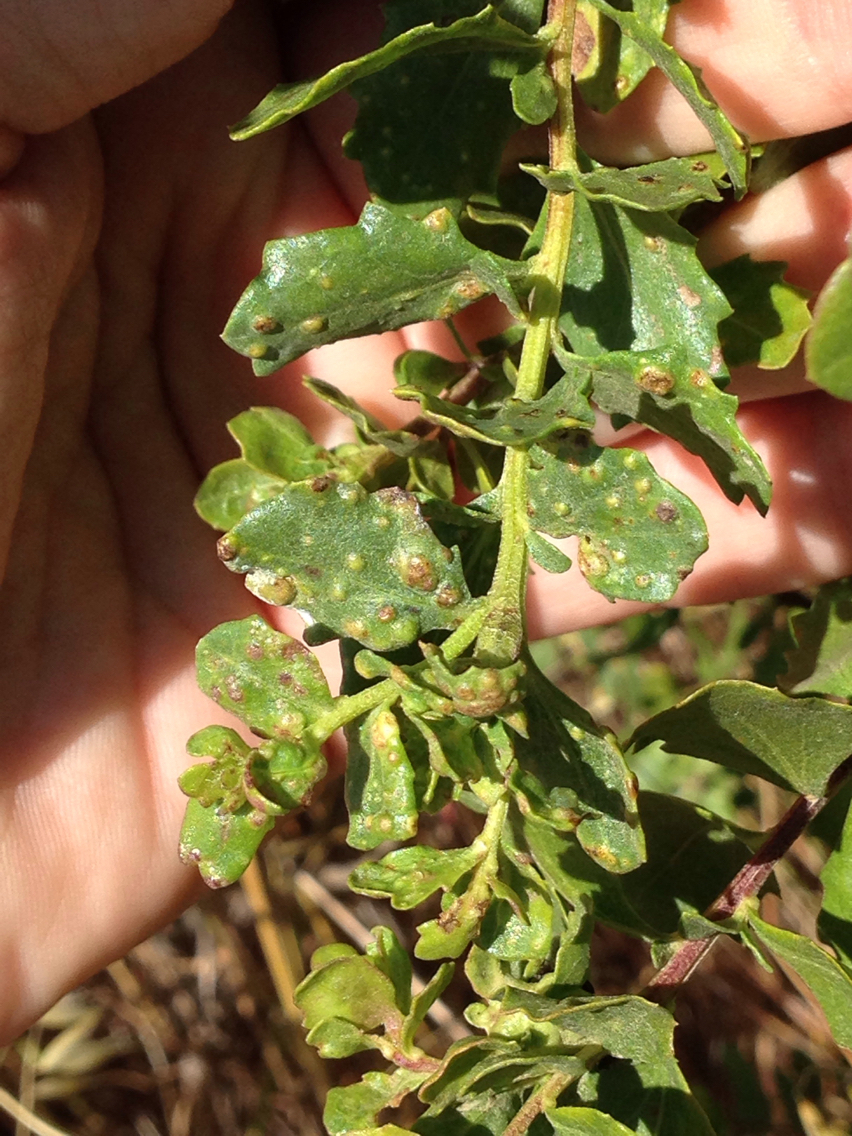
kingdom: Animalia
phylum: Arthropoda
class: Arachnida
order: Trombidiformes
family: Eriophyidae
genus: Aceria
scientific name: Aceria
